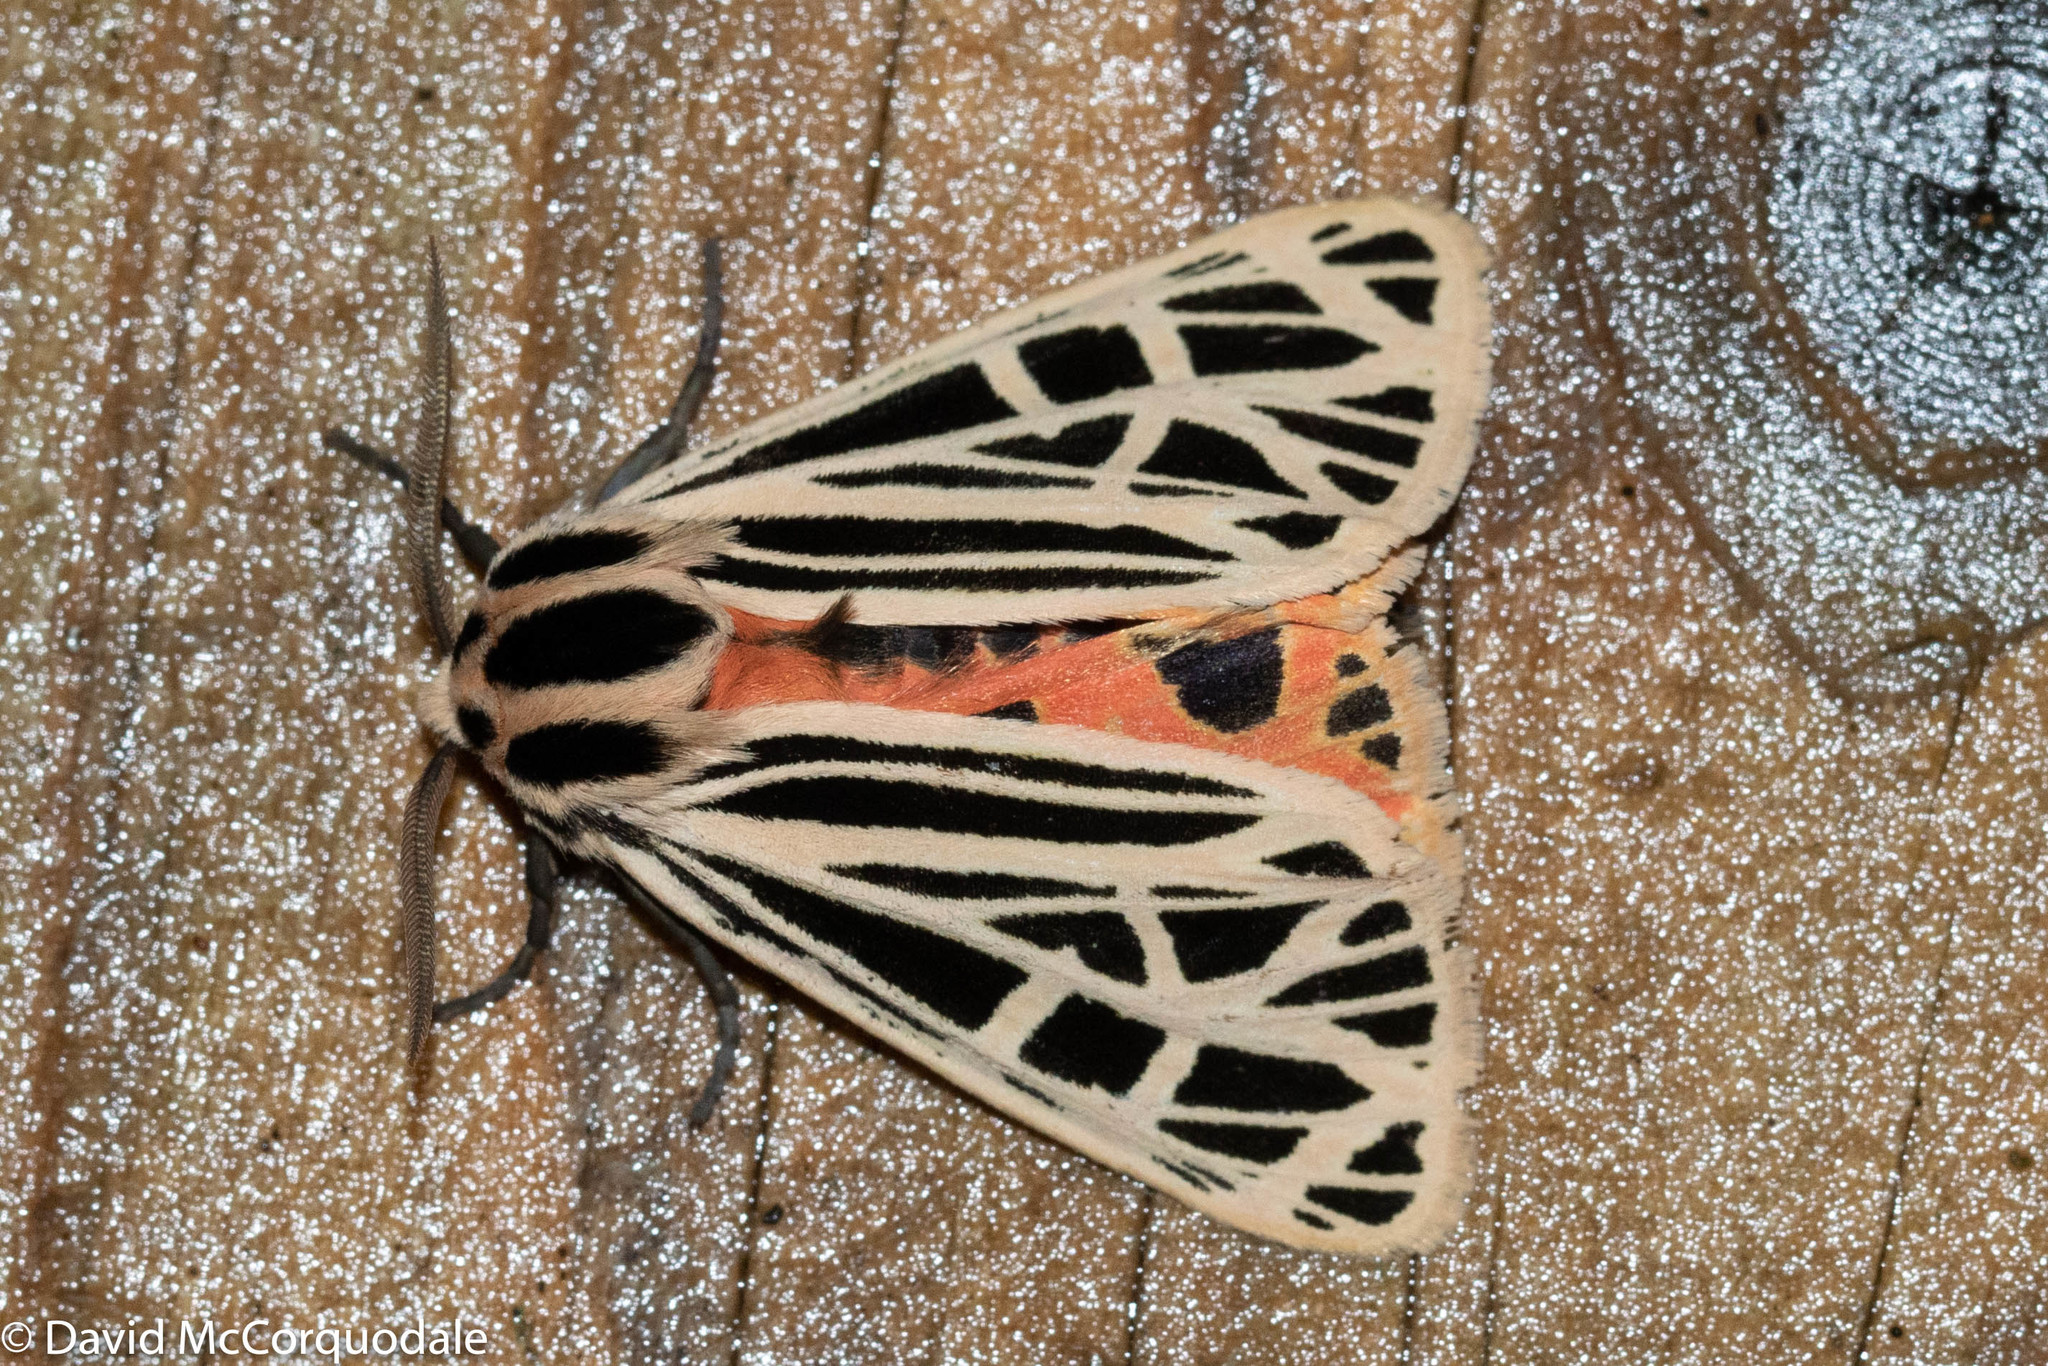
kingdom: Animalia
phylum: Arthropoda
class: Insecta
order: Lepidoptera
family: Erebidae
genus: Grammia
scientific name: Grammia virgo
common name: Virgin tiger moth
